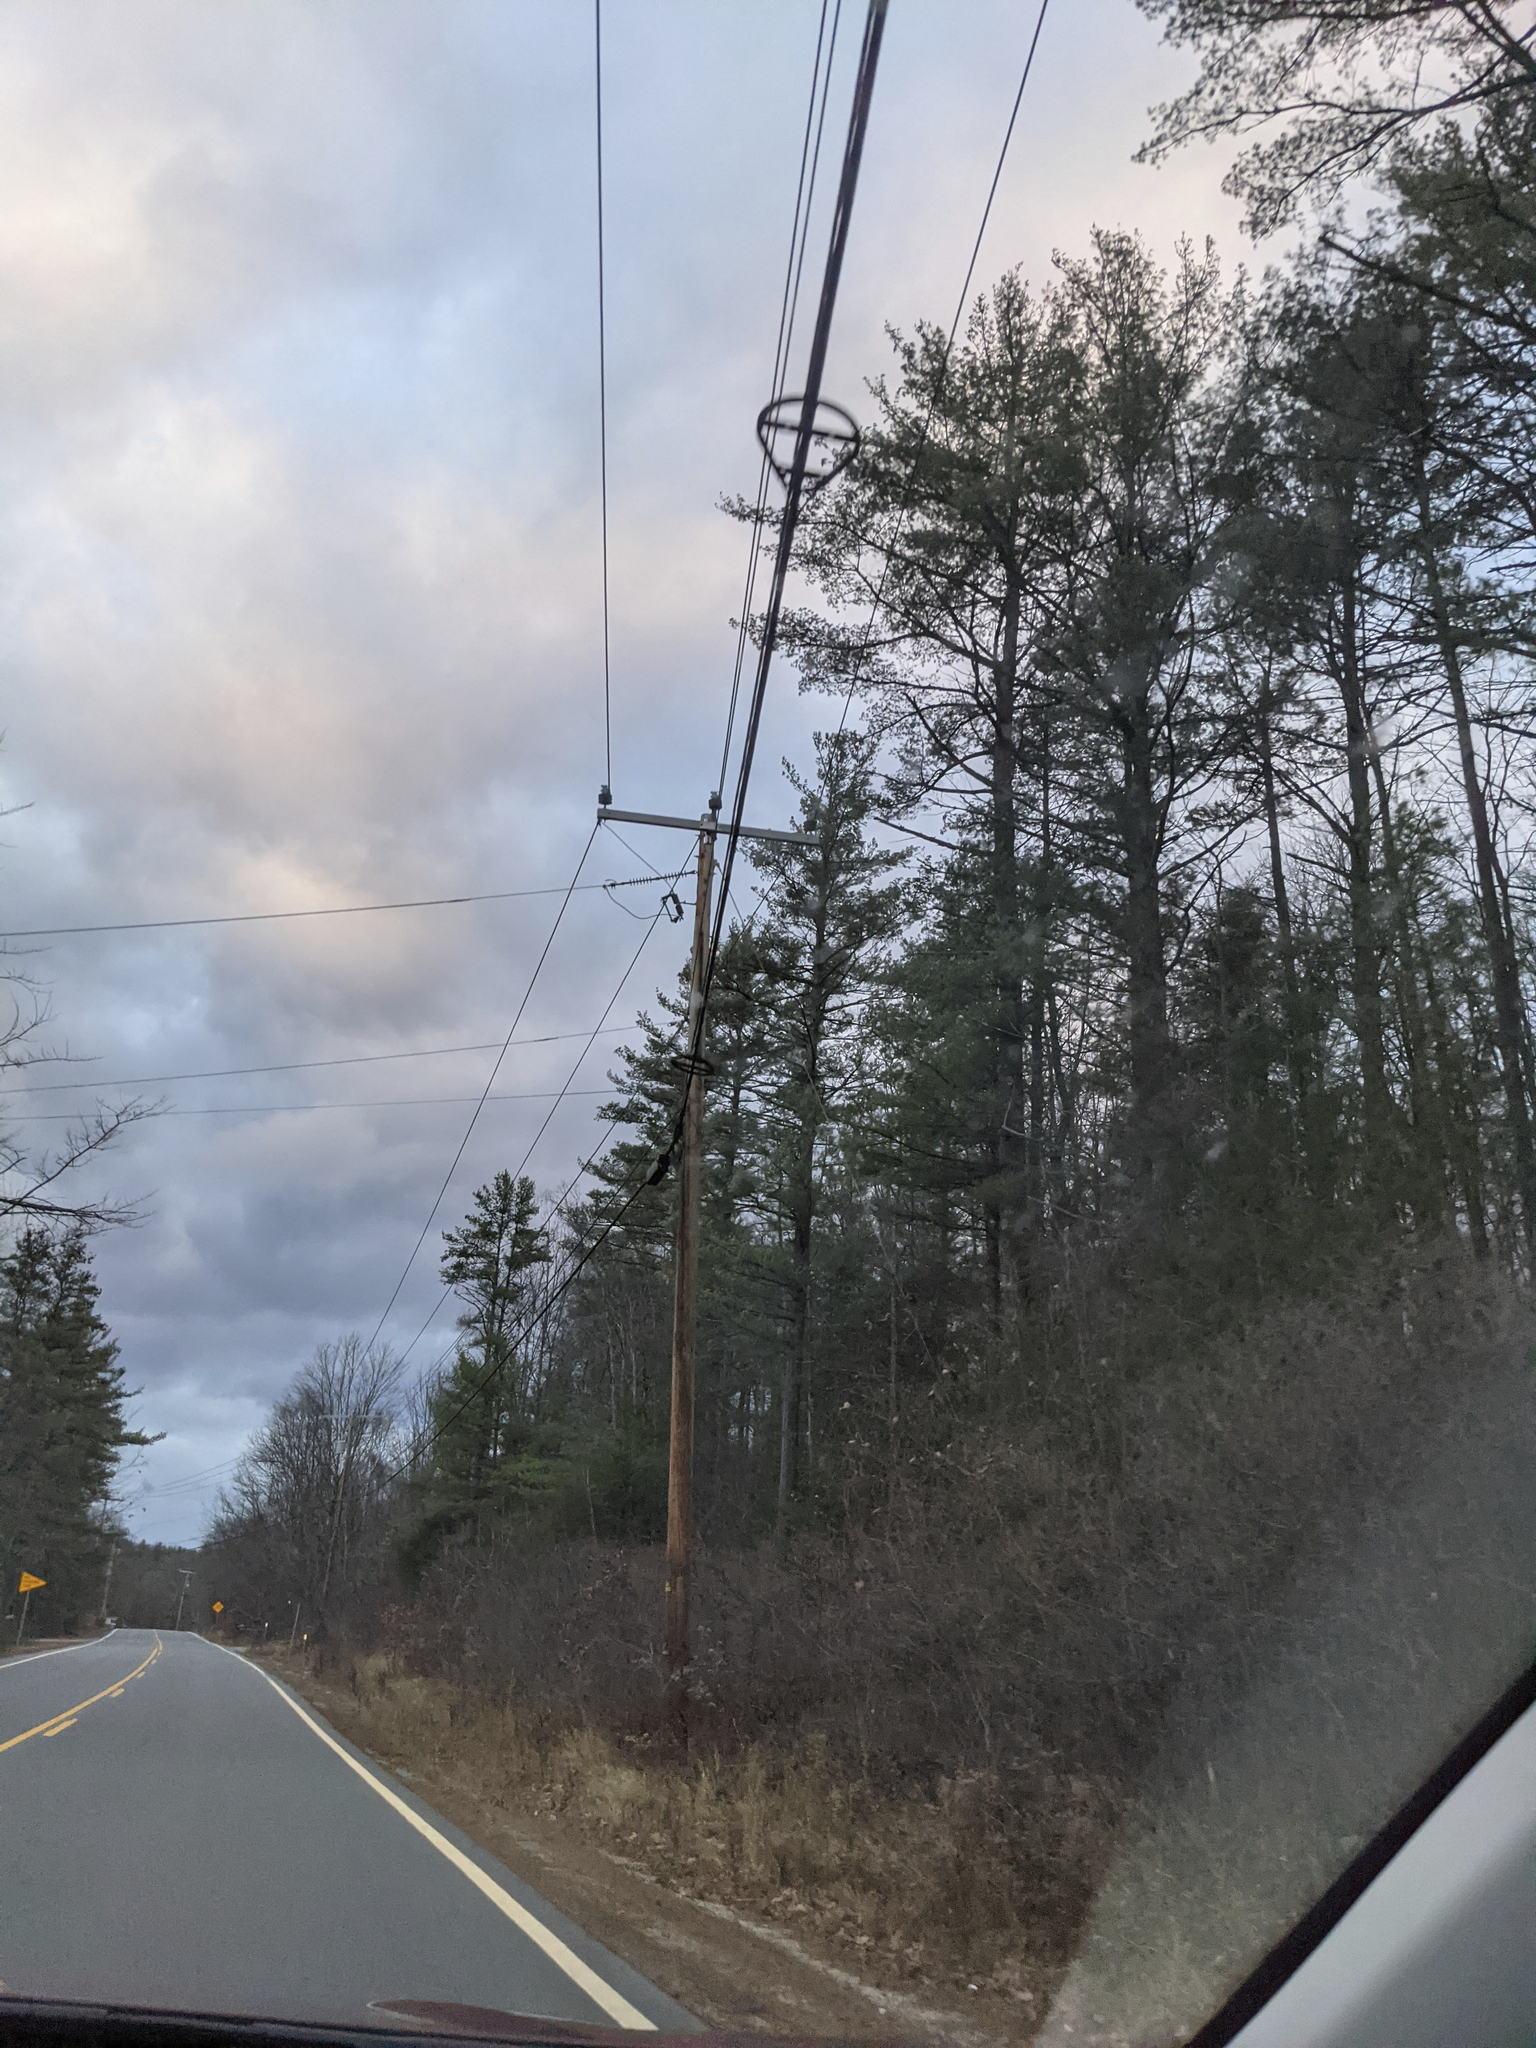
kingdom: Plantae
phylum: Tracheophyta
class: Pinopsida
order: Pinales
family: Pinaceae
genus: Pinus
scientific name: Pinus strobus
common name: Weymouth pine
